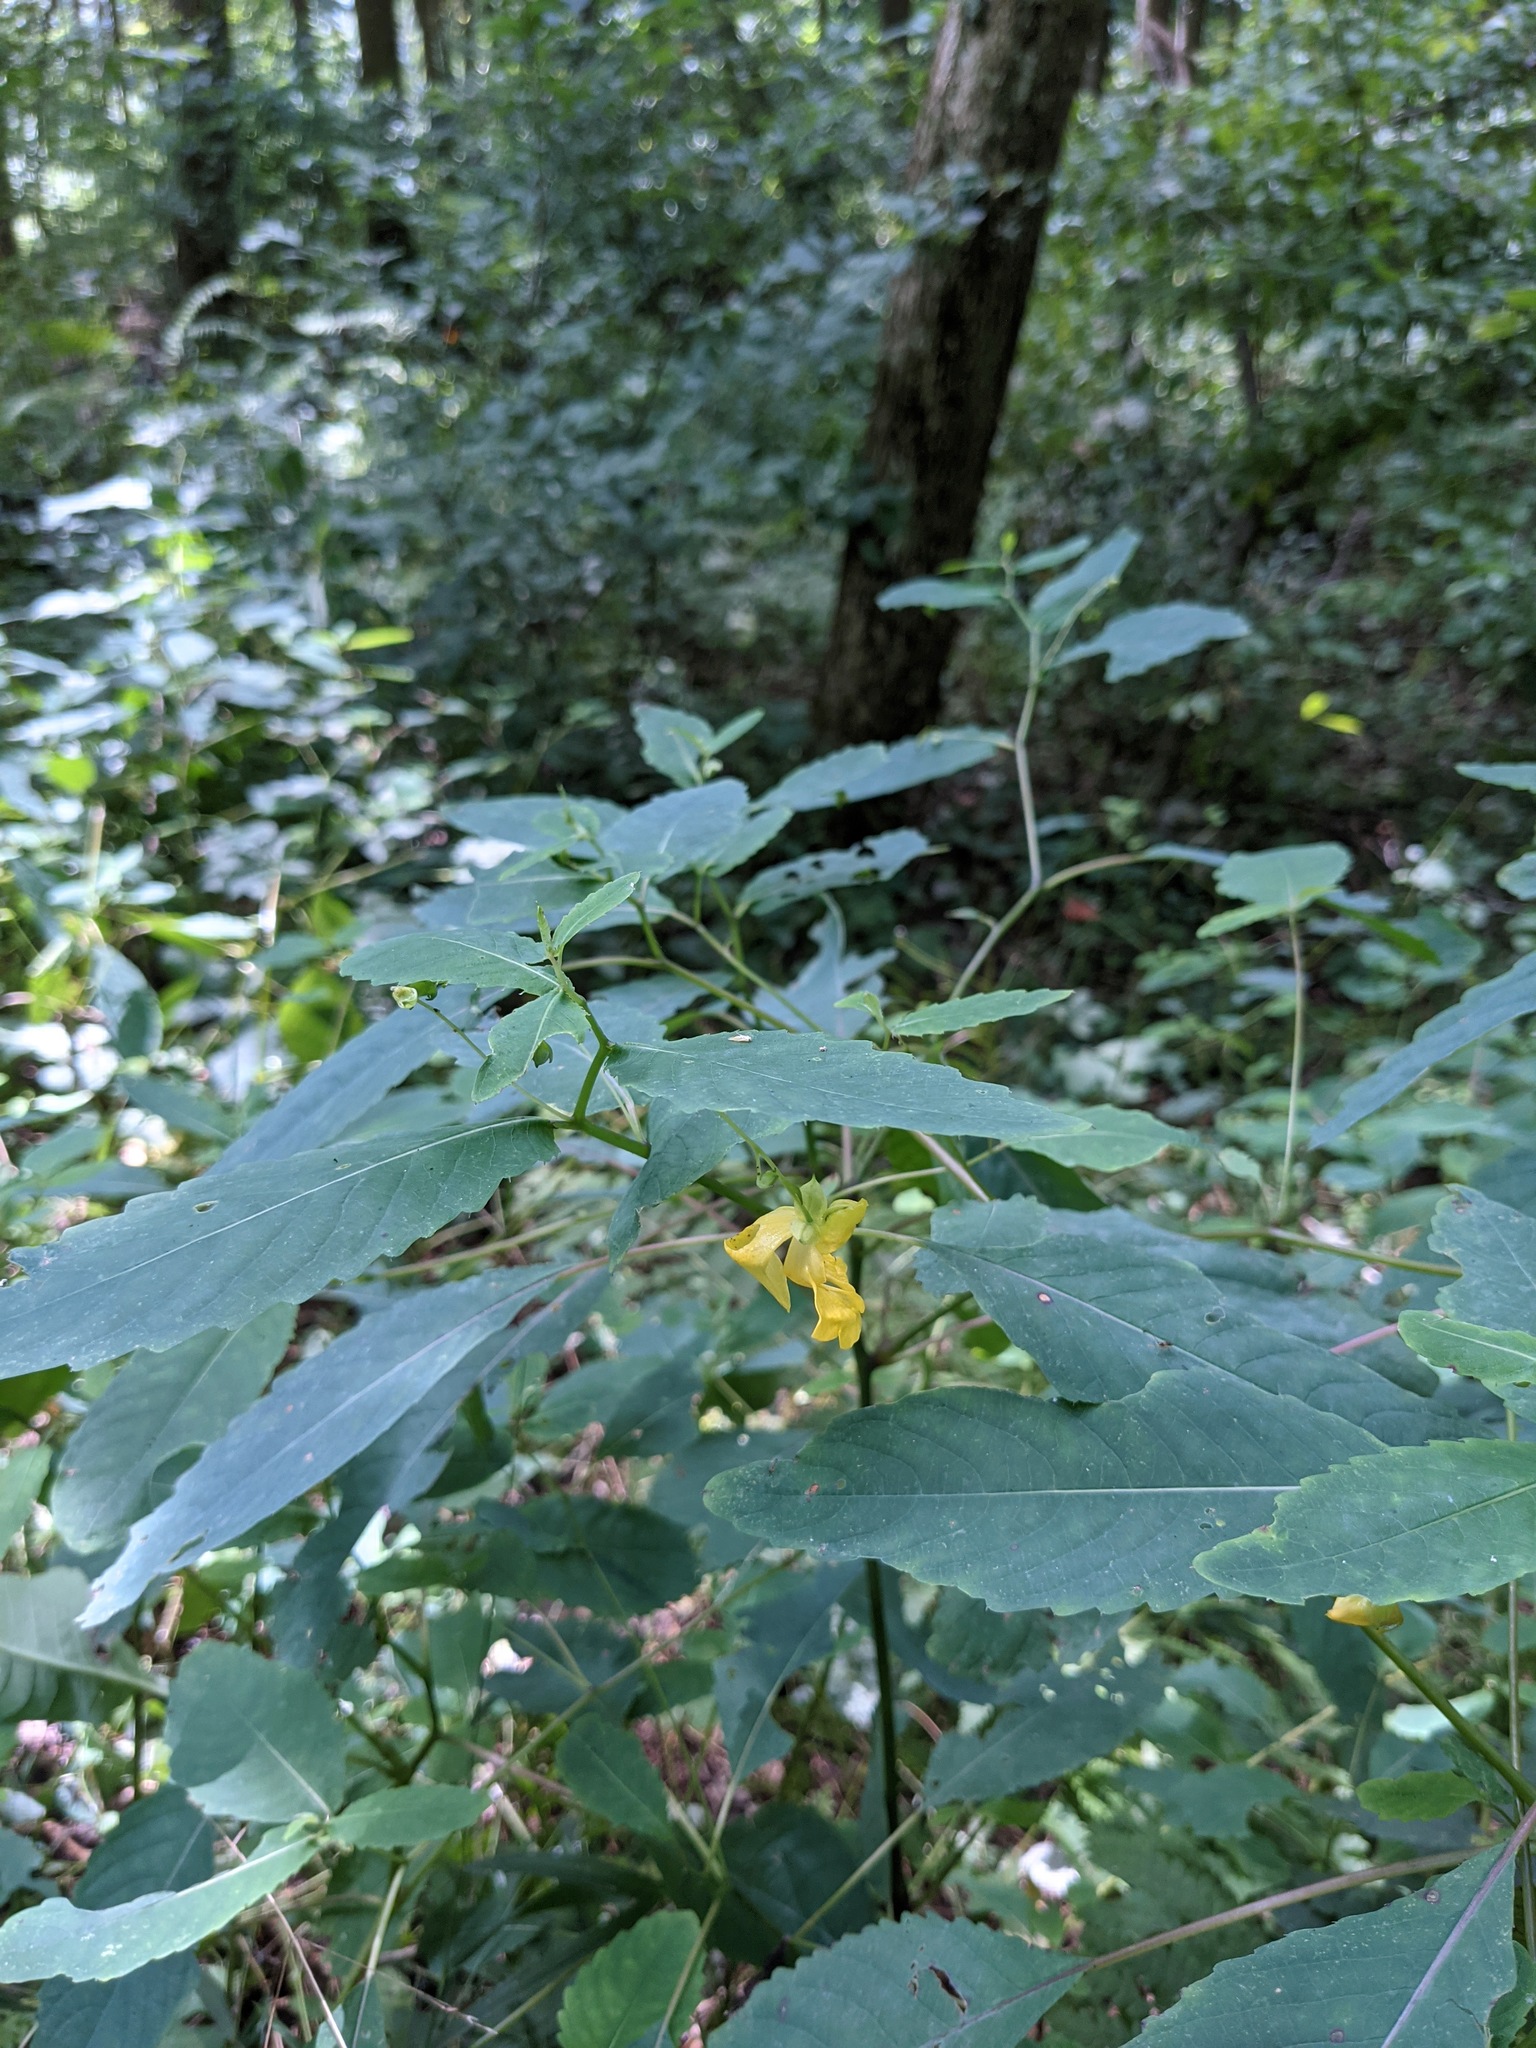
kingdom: Plantae
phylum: Tracheophyta
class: Magnoliopsida
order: Ericales
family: Balsaminaceae
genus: Impatiens
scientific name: Impatiens pallida
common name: Pale snapweed
